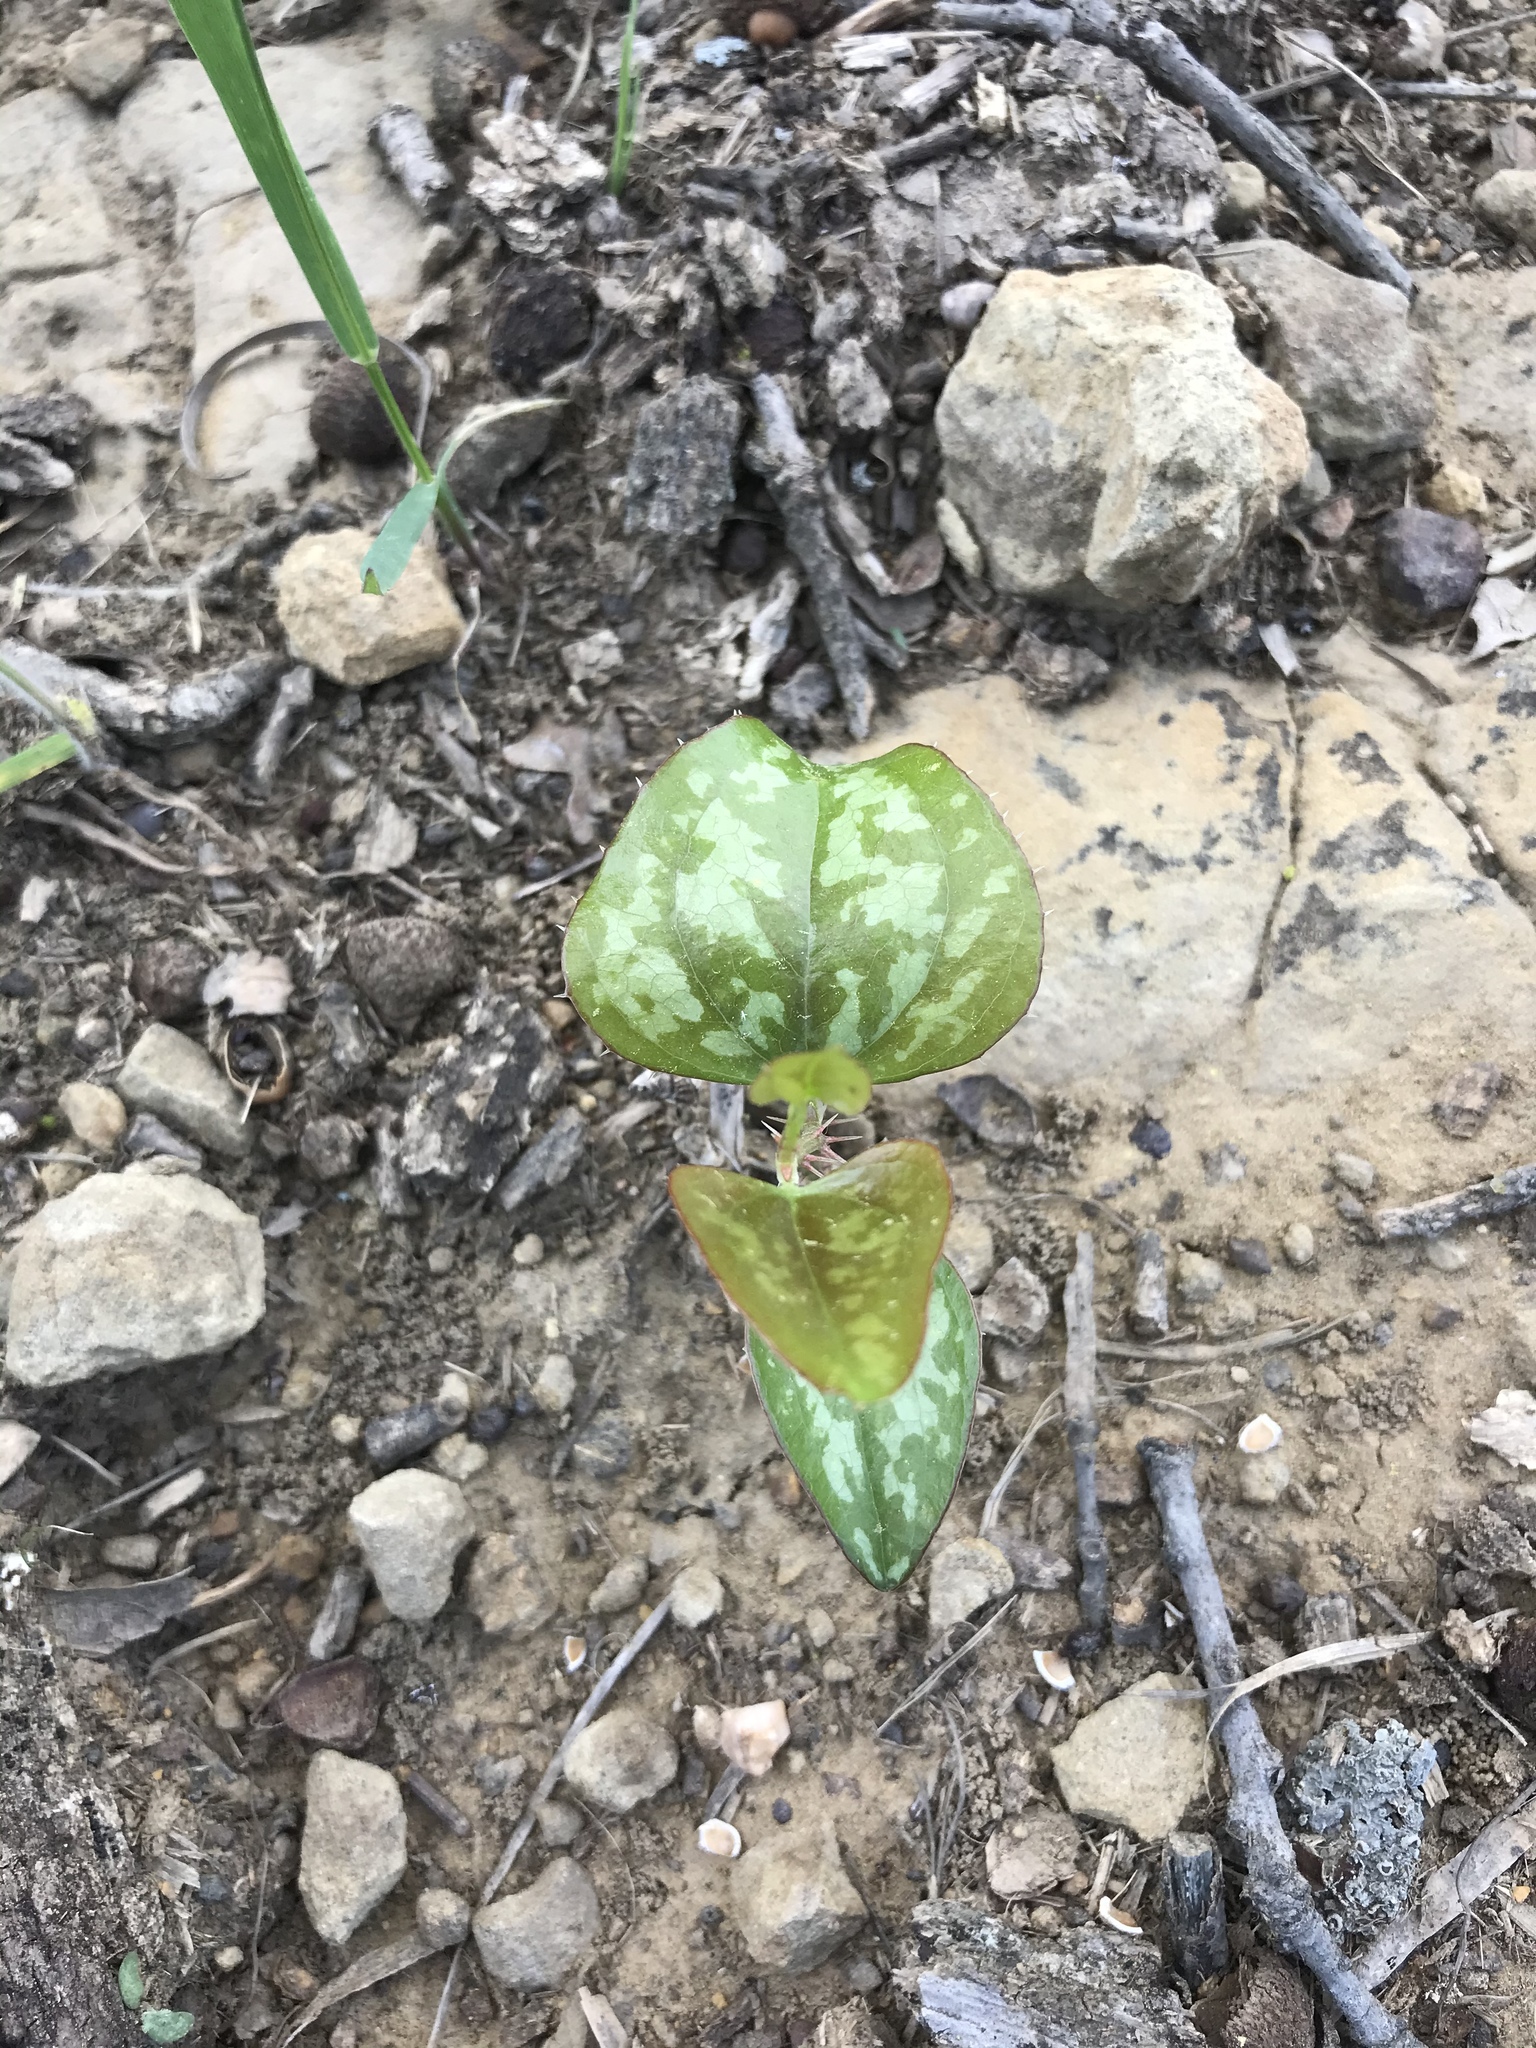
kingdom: Plantae
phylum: Tracheophyta
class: Liliopsida
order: Liliales
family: Smilacaceae
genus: Smilax
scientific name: Smilax bona-nox
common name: Catbrier
